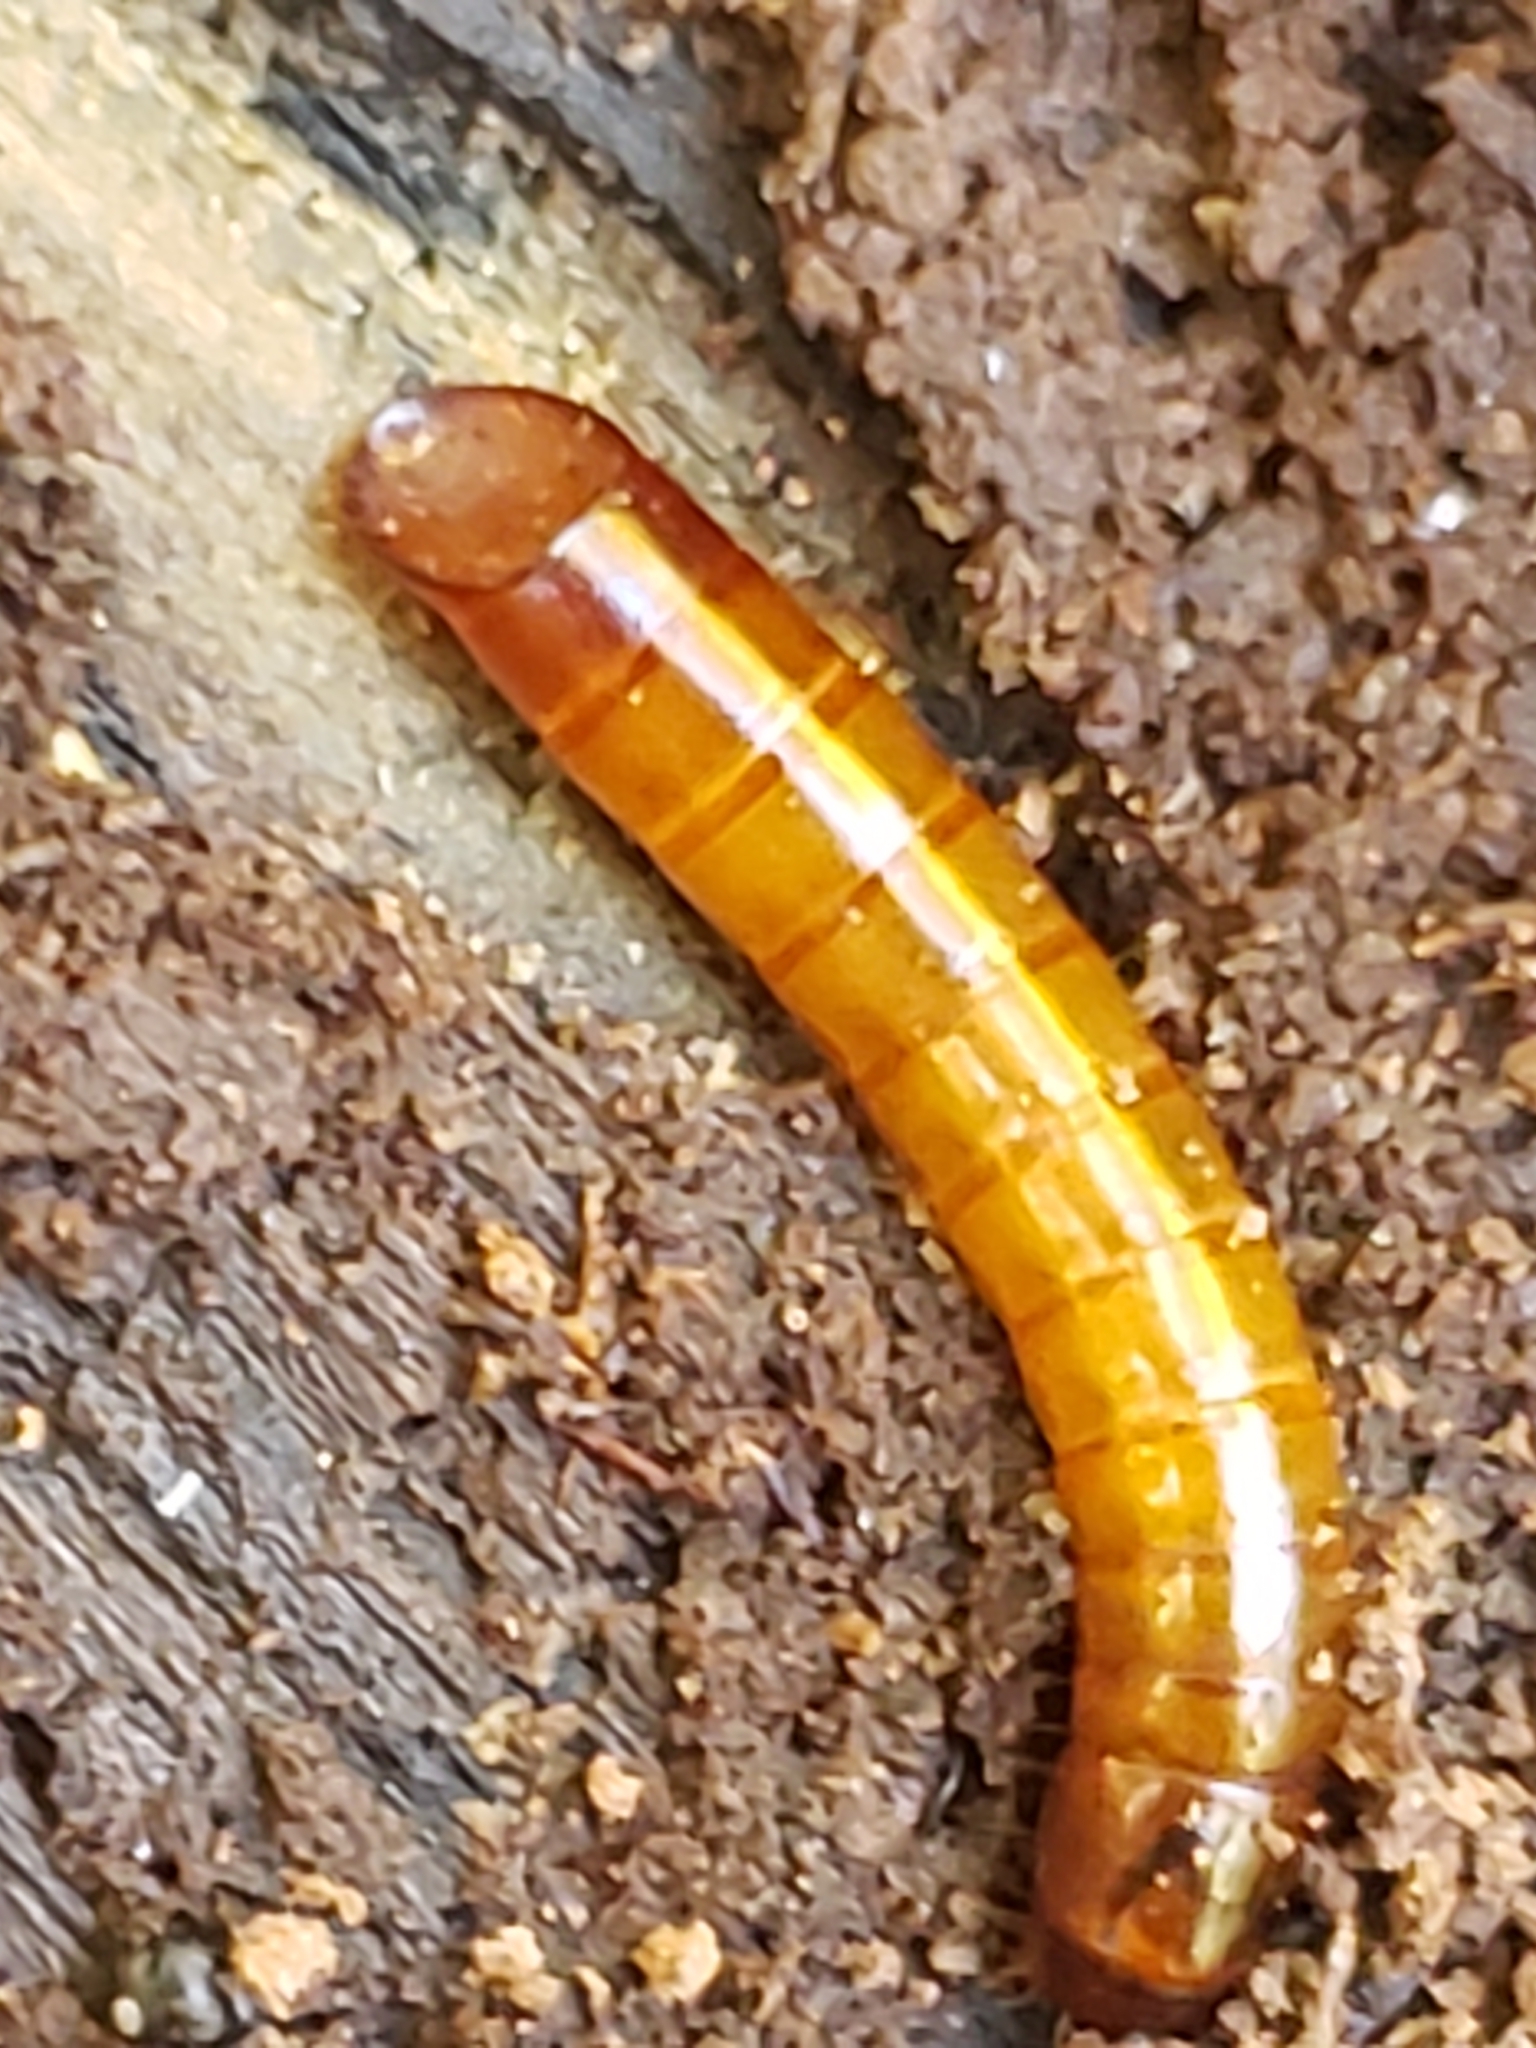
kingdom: Animalia
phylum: Arthropoda
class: Insecta
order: Coleoptera
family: Tenebrionidae
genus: Meracantha
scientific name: Meracantha contracta
